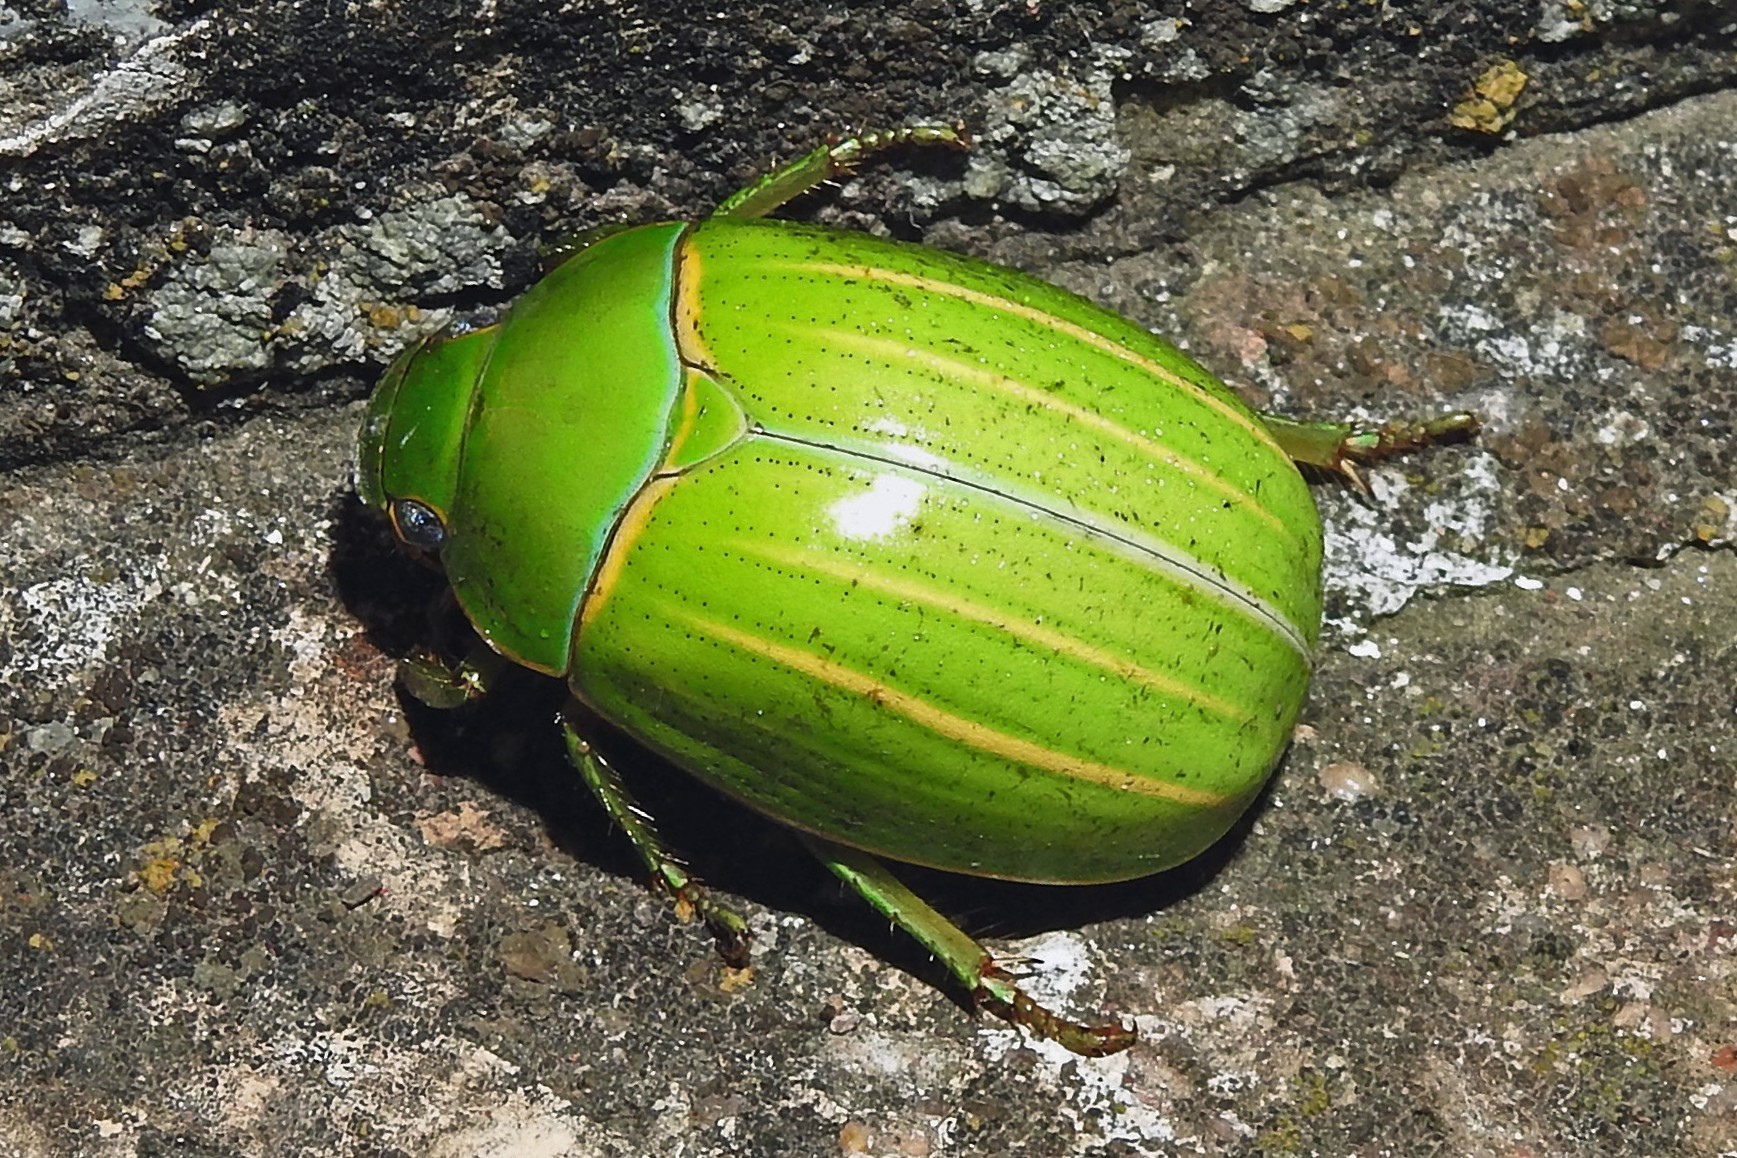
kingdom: Animalia
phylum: Arthropoda
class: Insecta
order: Coleoptera
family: Scarabaeidae
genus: Platycoelia
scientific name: Platycoelia inflata
